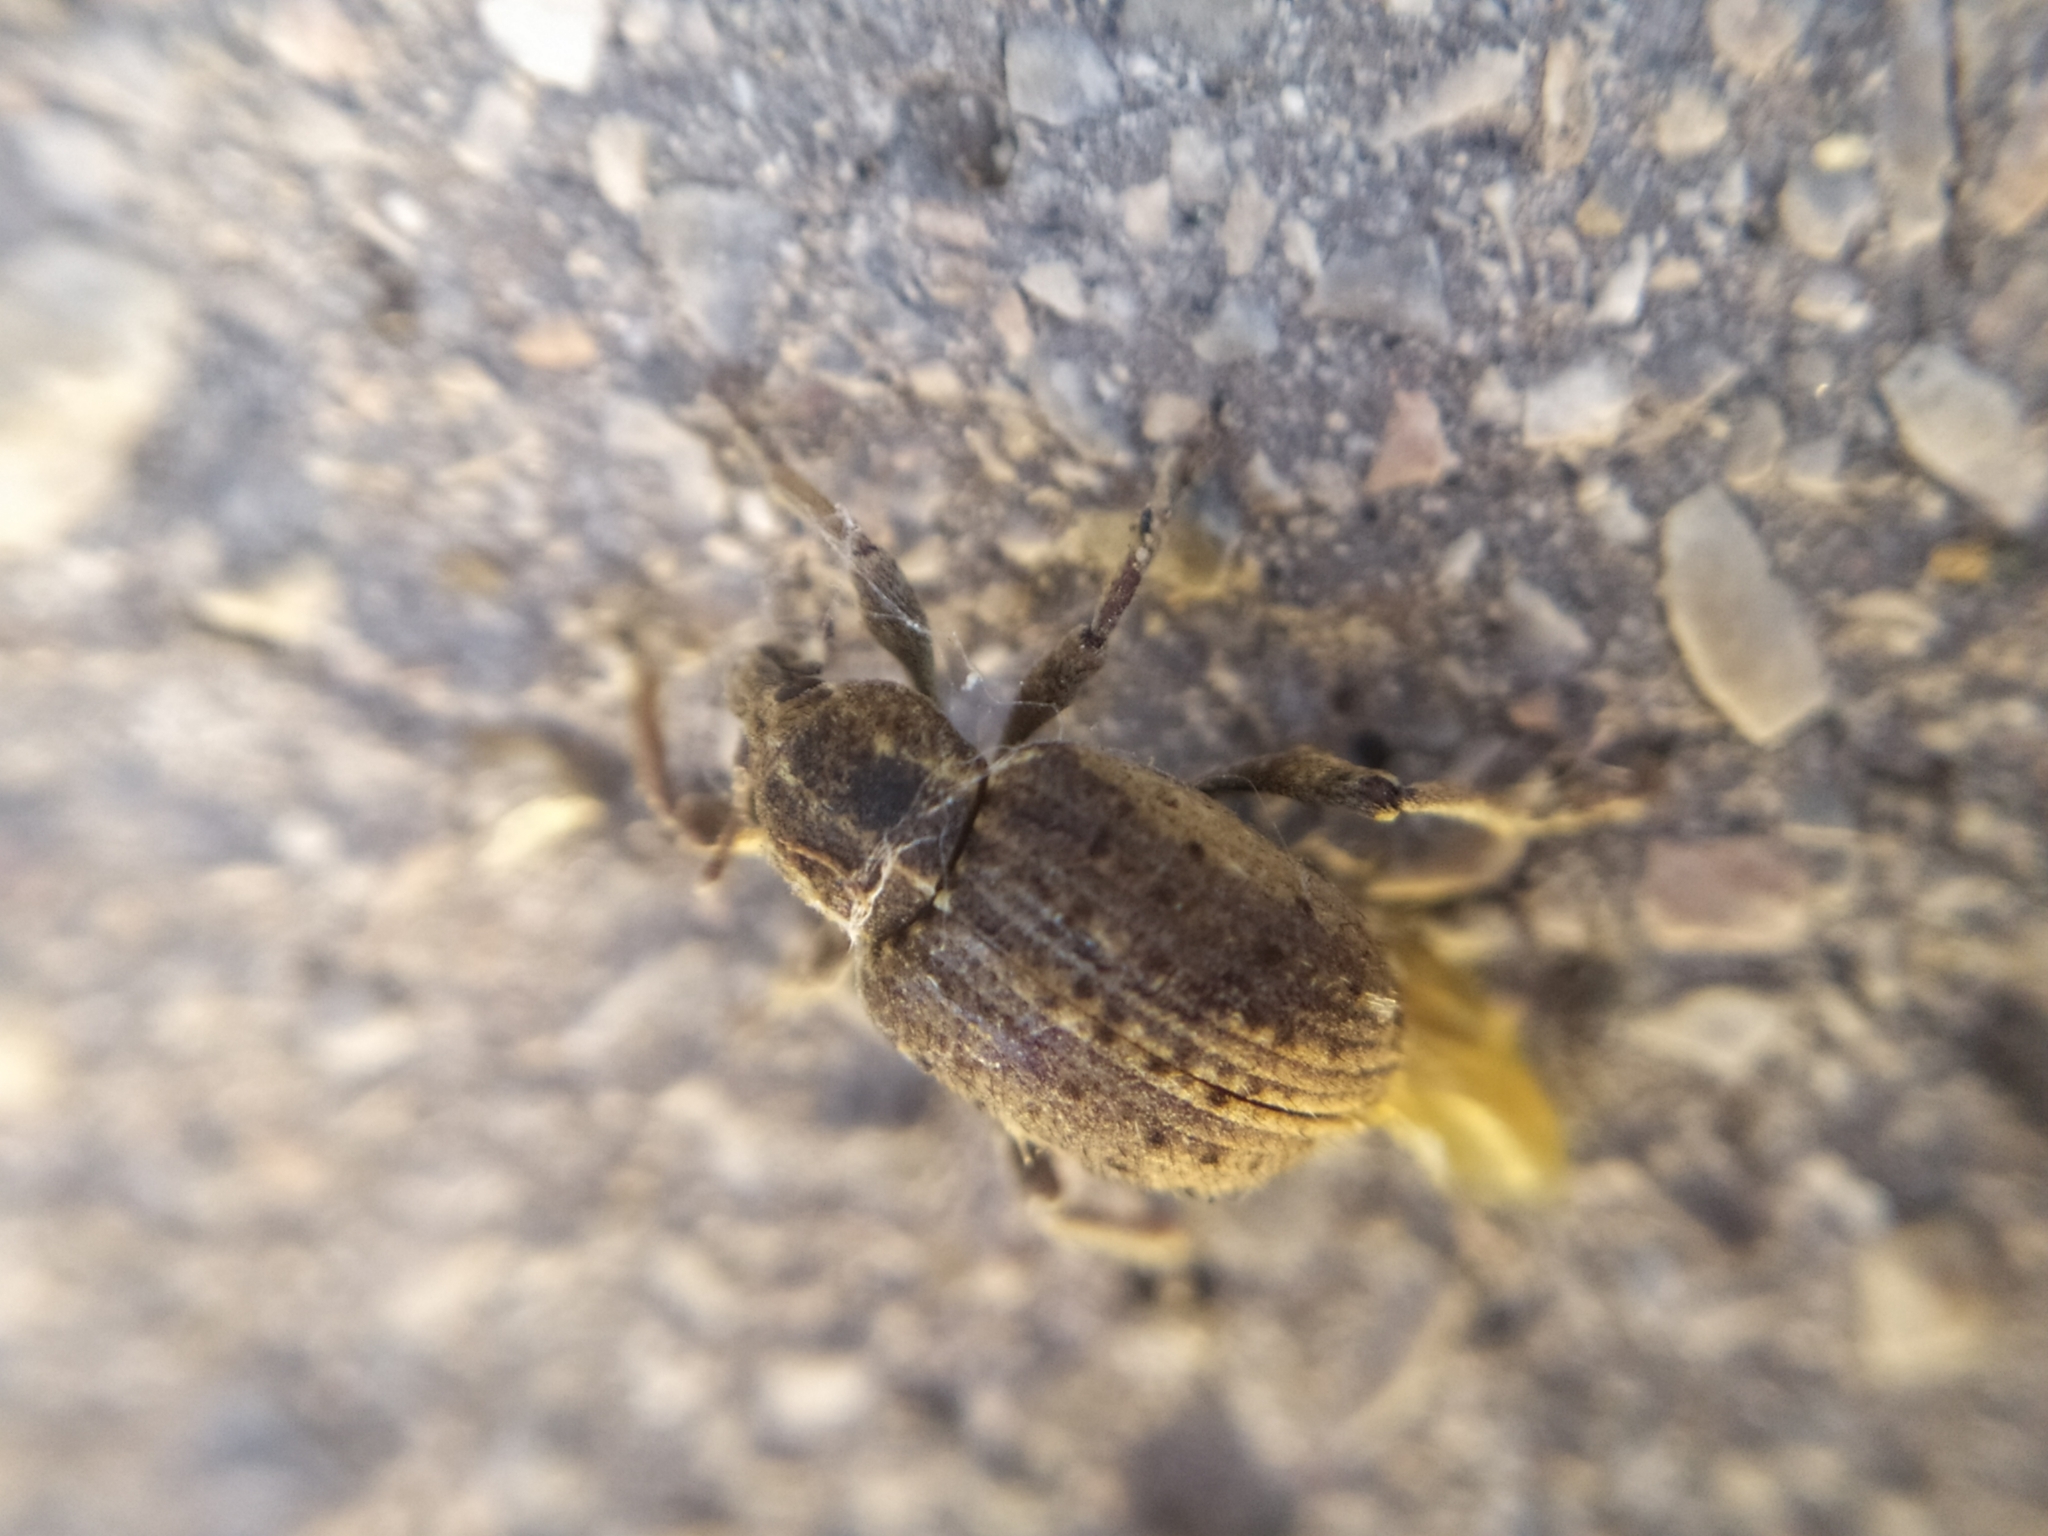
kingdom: Animalia
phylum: Arthropoda
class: Insecta
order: Coleoptera
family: Curculionidae
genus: Brachypera
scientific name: Brachypera zoilus
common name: Clover leaf weevil
